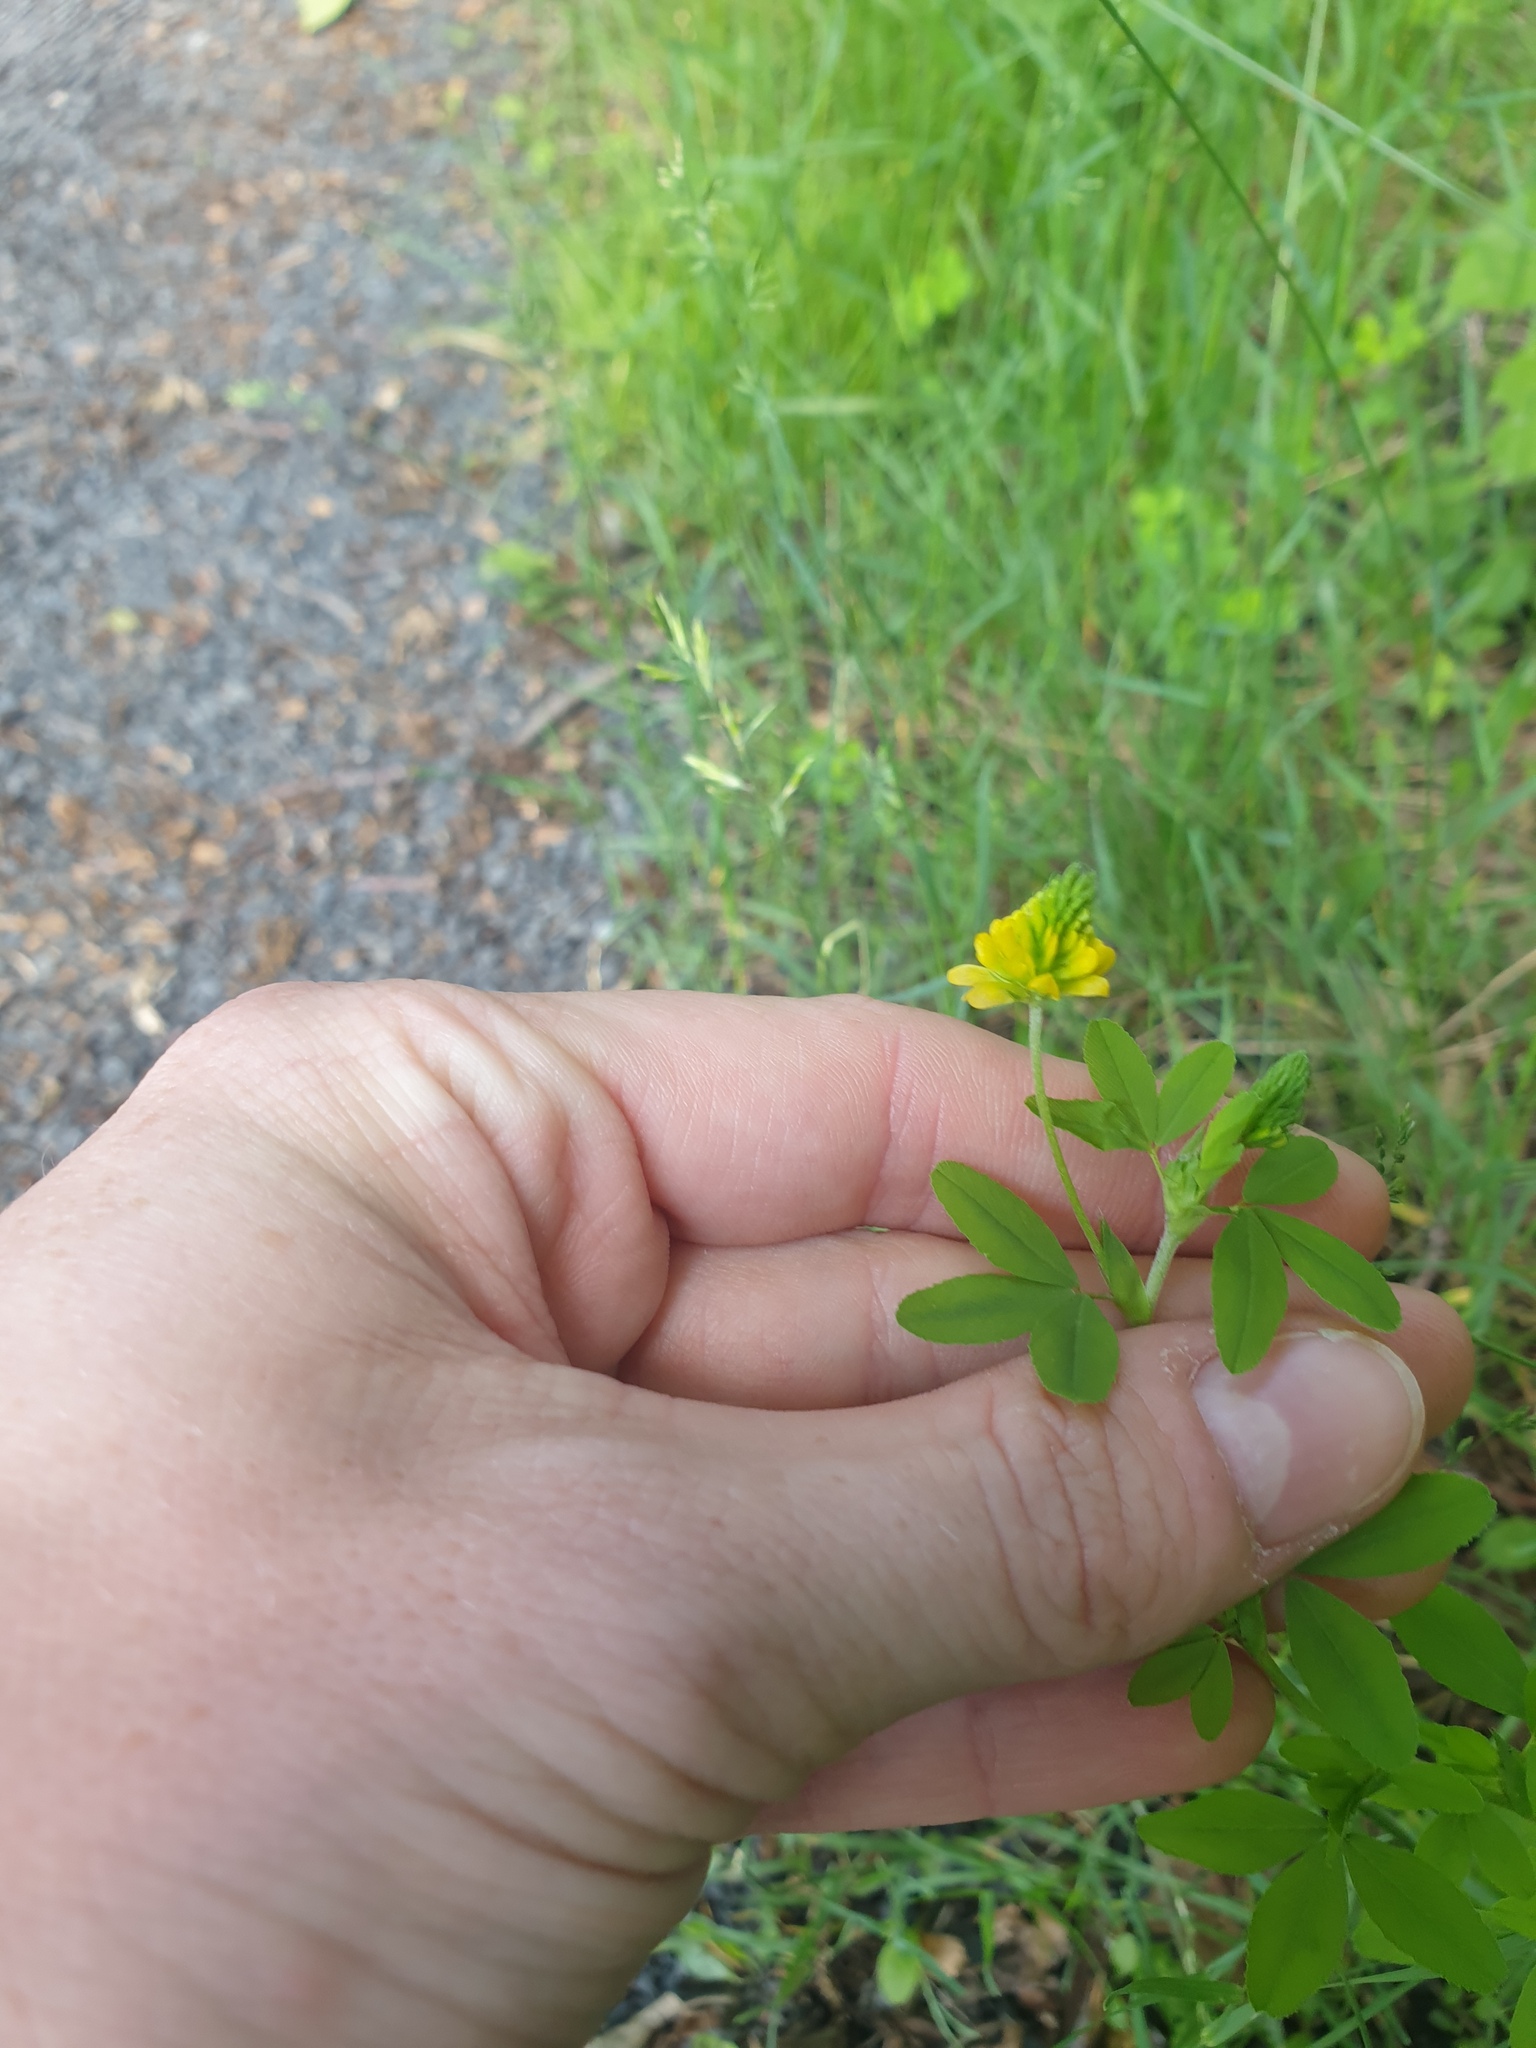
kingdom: Plantae
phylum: Tracheophyta
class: Magnoliopsida
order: Fabales
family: Fabaceae
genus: Trifolium
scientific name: Trifolium aureum
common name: Golden clover
